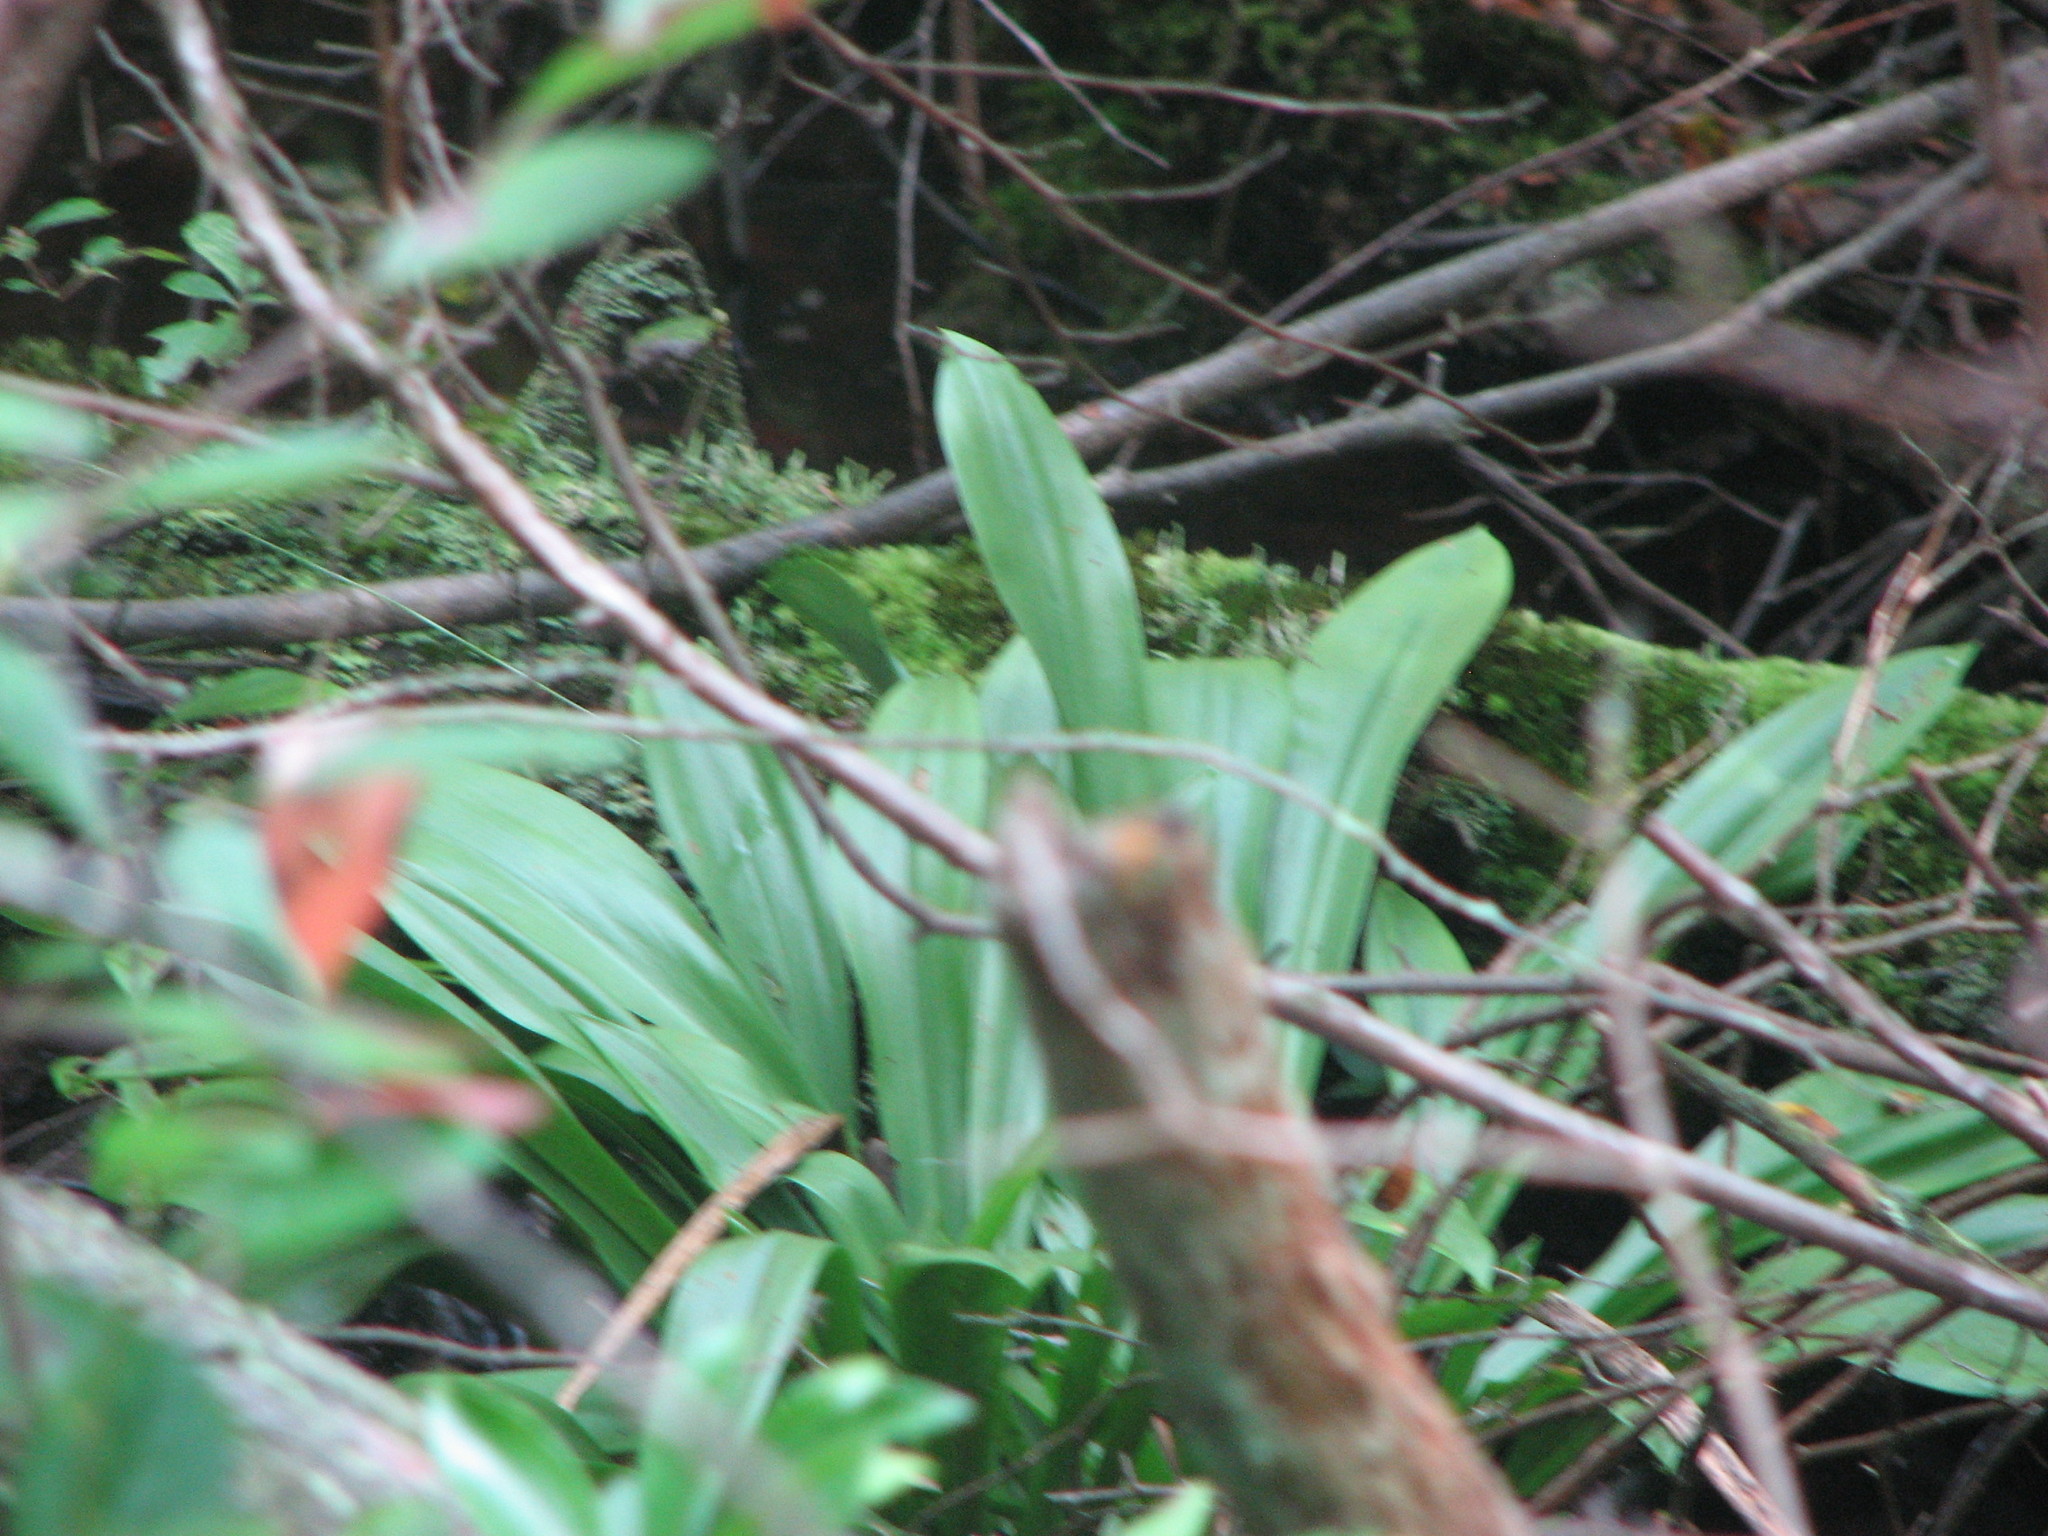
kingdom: Plantae
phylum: Tracheophyta
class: Liliopsida
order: Liliales
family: Melanthiaceae
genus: Helonias
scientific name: Helonias bullata
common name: Swamp-pink
